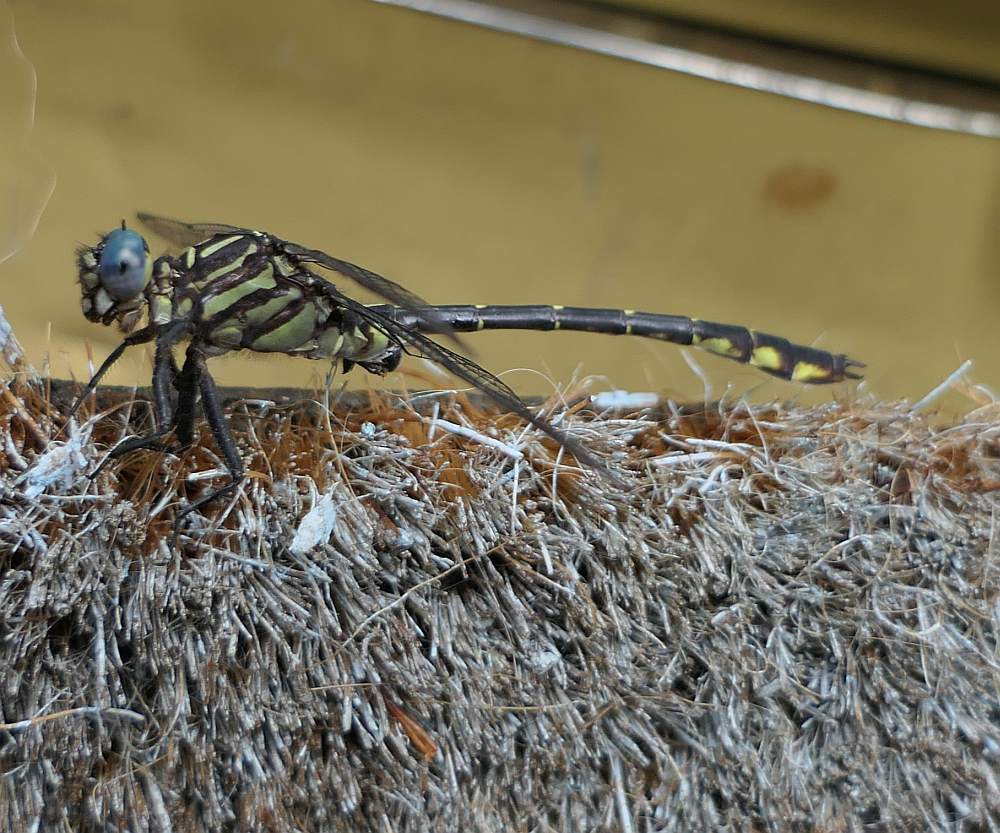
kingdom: Animalia
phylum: Arthropoda
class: Insecta
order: Odonata
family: Gomphidae
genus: Stylurus
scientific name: Stylurus notatus
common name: Elusive clubtail
